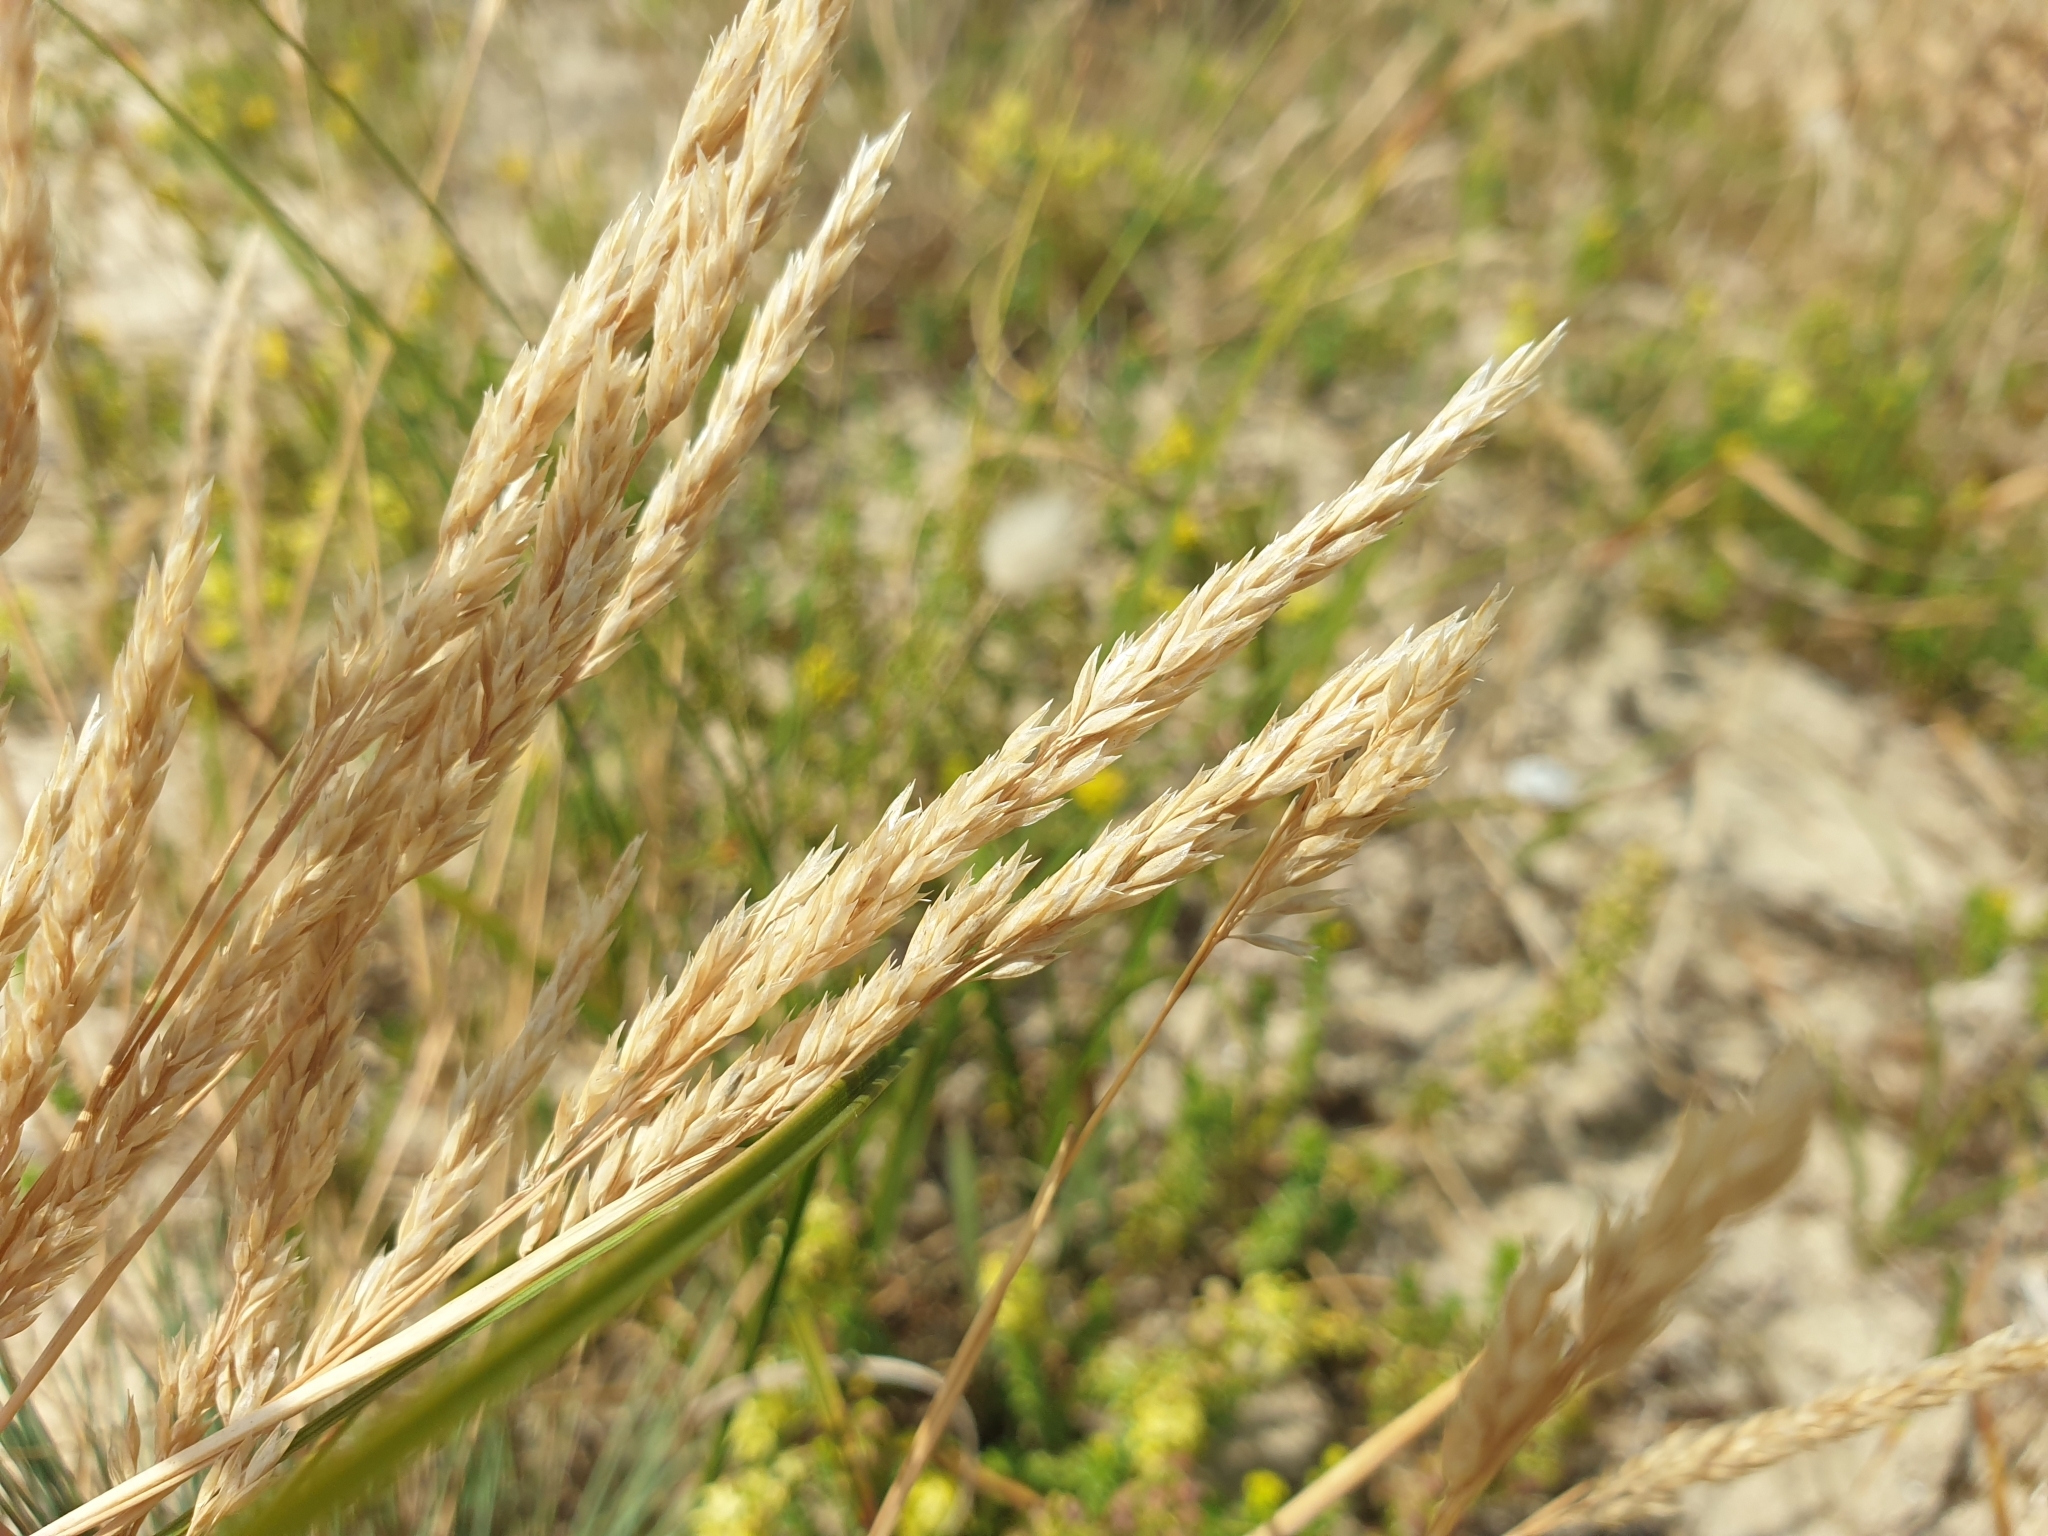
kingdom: Plantae
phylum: Tracheophyta
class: Liliopsida
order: Poales
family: Poaceae
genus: Corynephorus
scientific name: Corynephorus canescens
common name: Grey hair-grass
